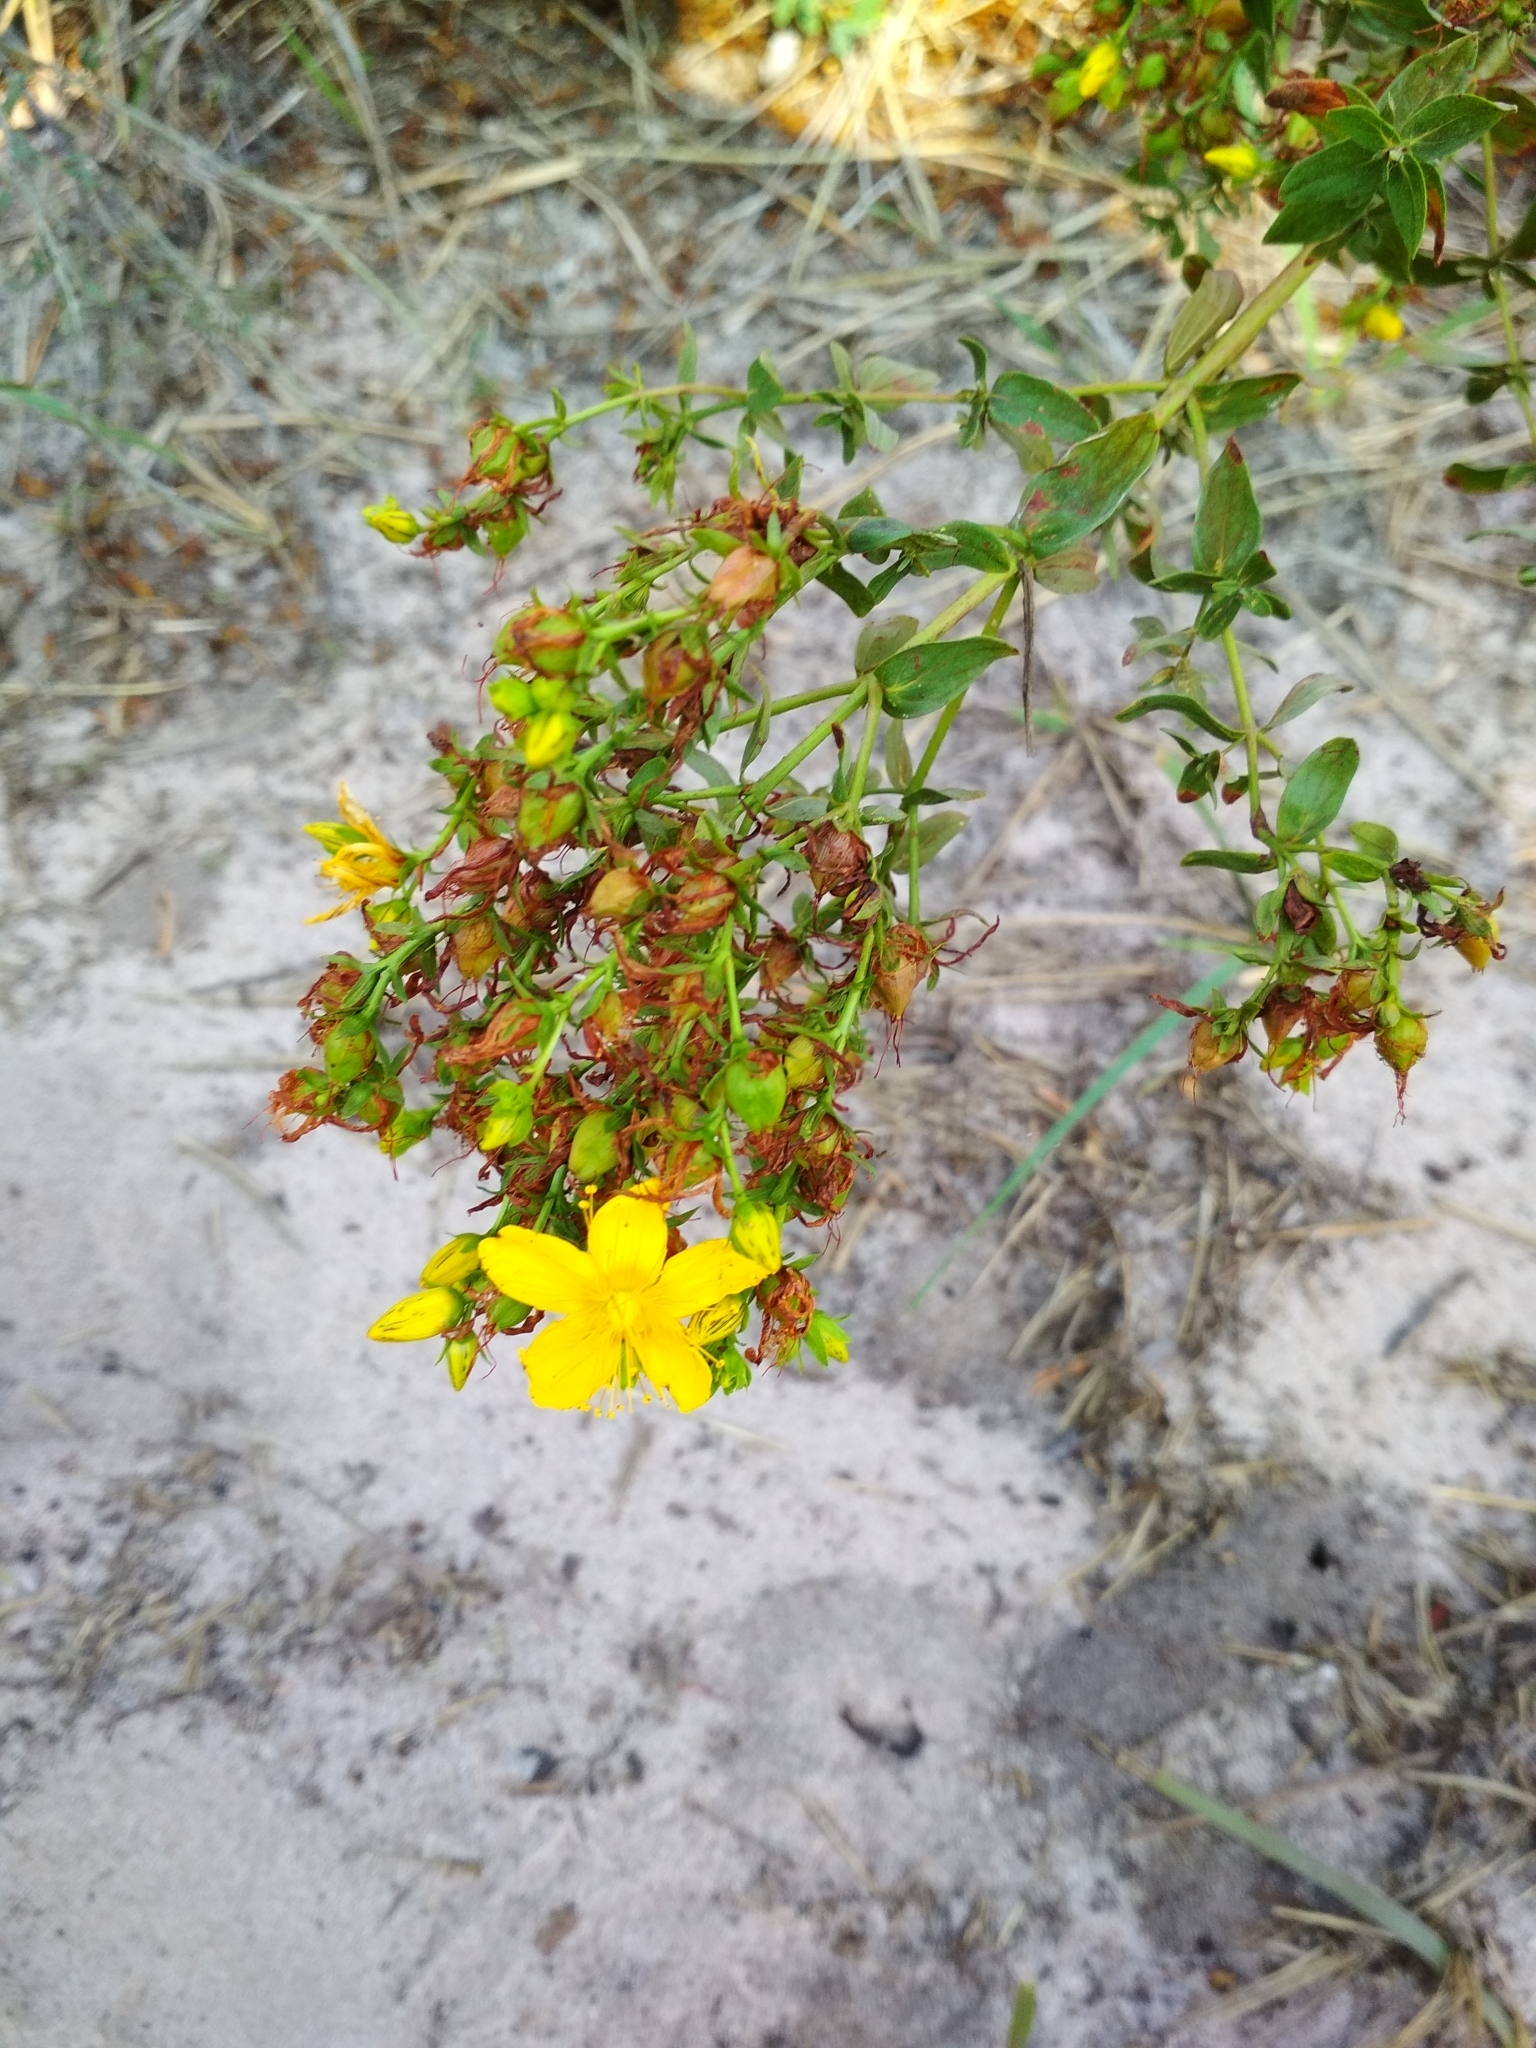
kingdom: Plantae
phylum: Tracheophyta
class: Magnoliopsida
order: Malpighiales
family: Hypericaceae
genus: Hypericum
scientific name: Hypericum perforatum
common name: Common st. johnswort
